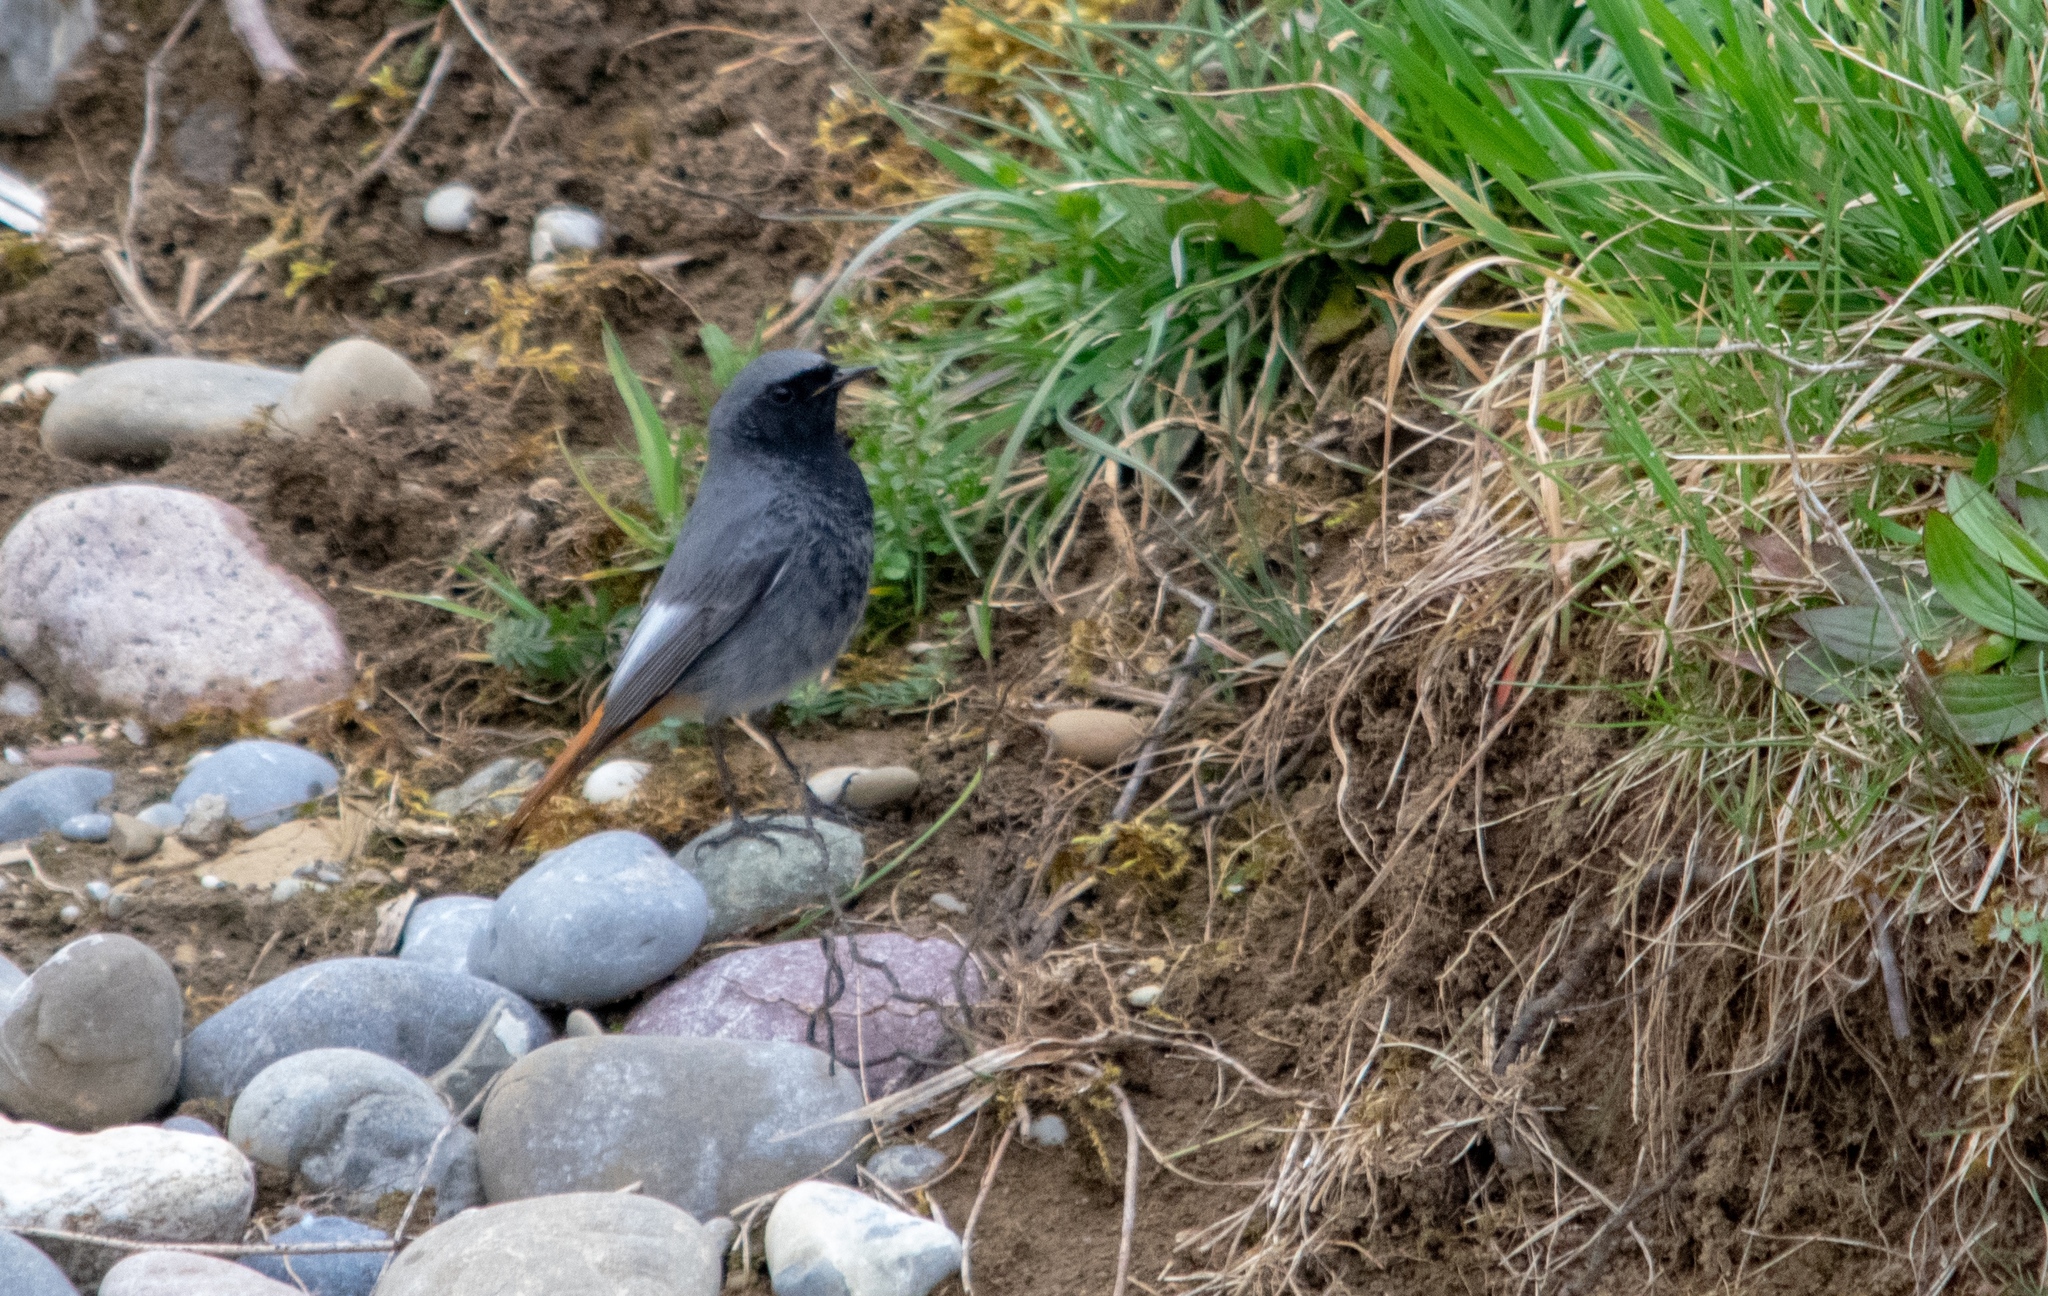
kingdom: Animalia
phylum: Chordata
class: Aves
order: Passeriformes
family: Muscicapidae
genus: Phoenicurus
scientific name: Phoenicurus ochruros
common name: Black redstart
